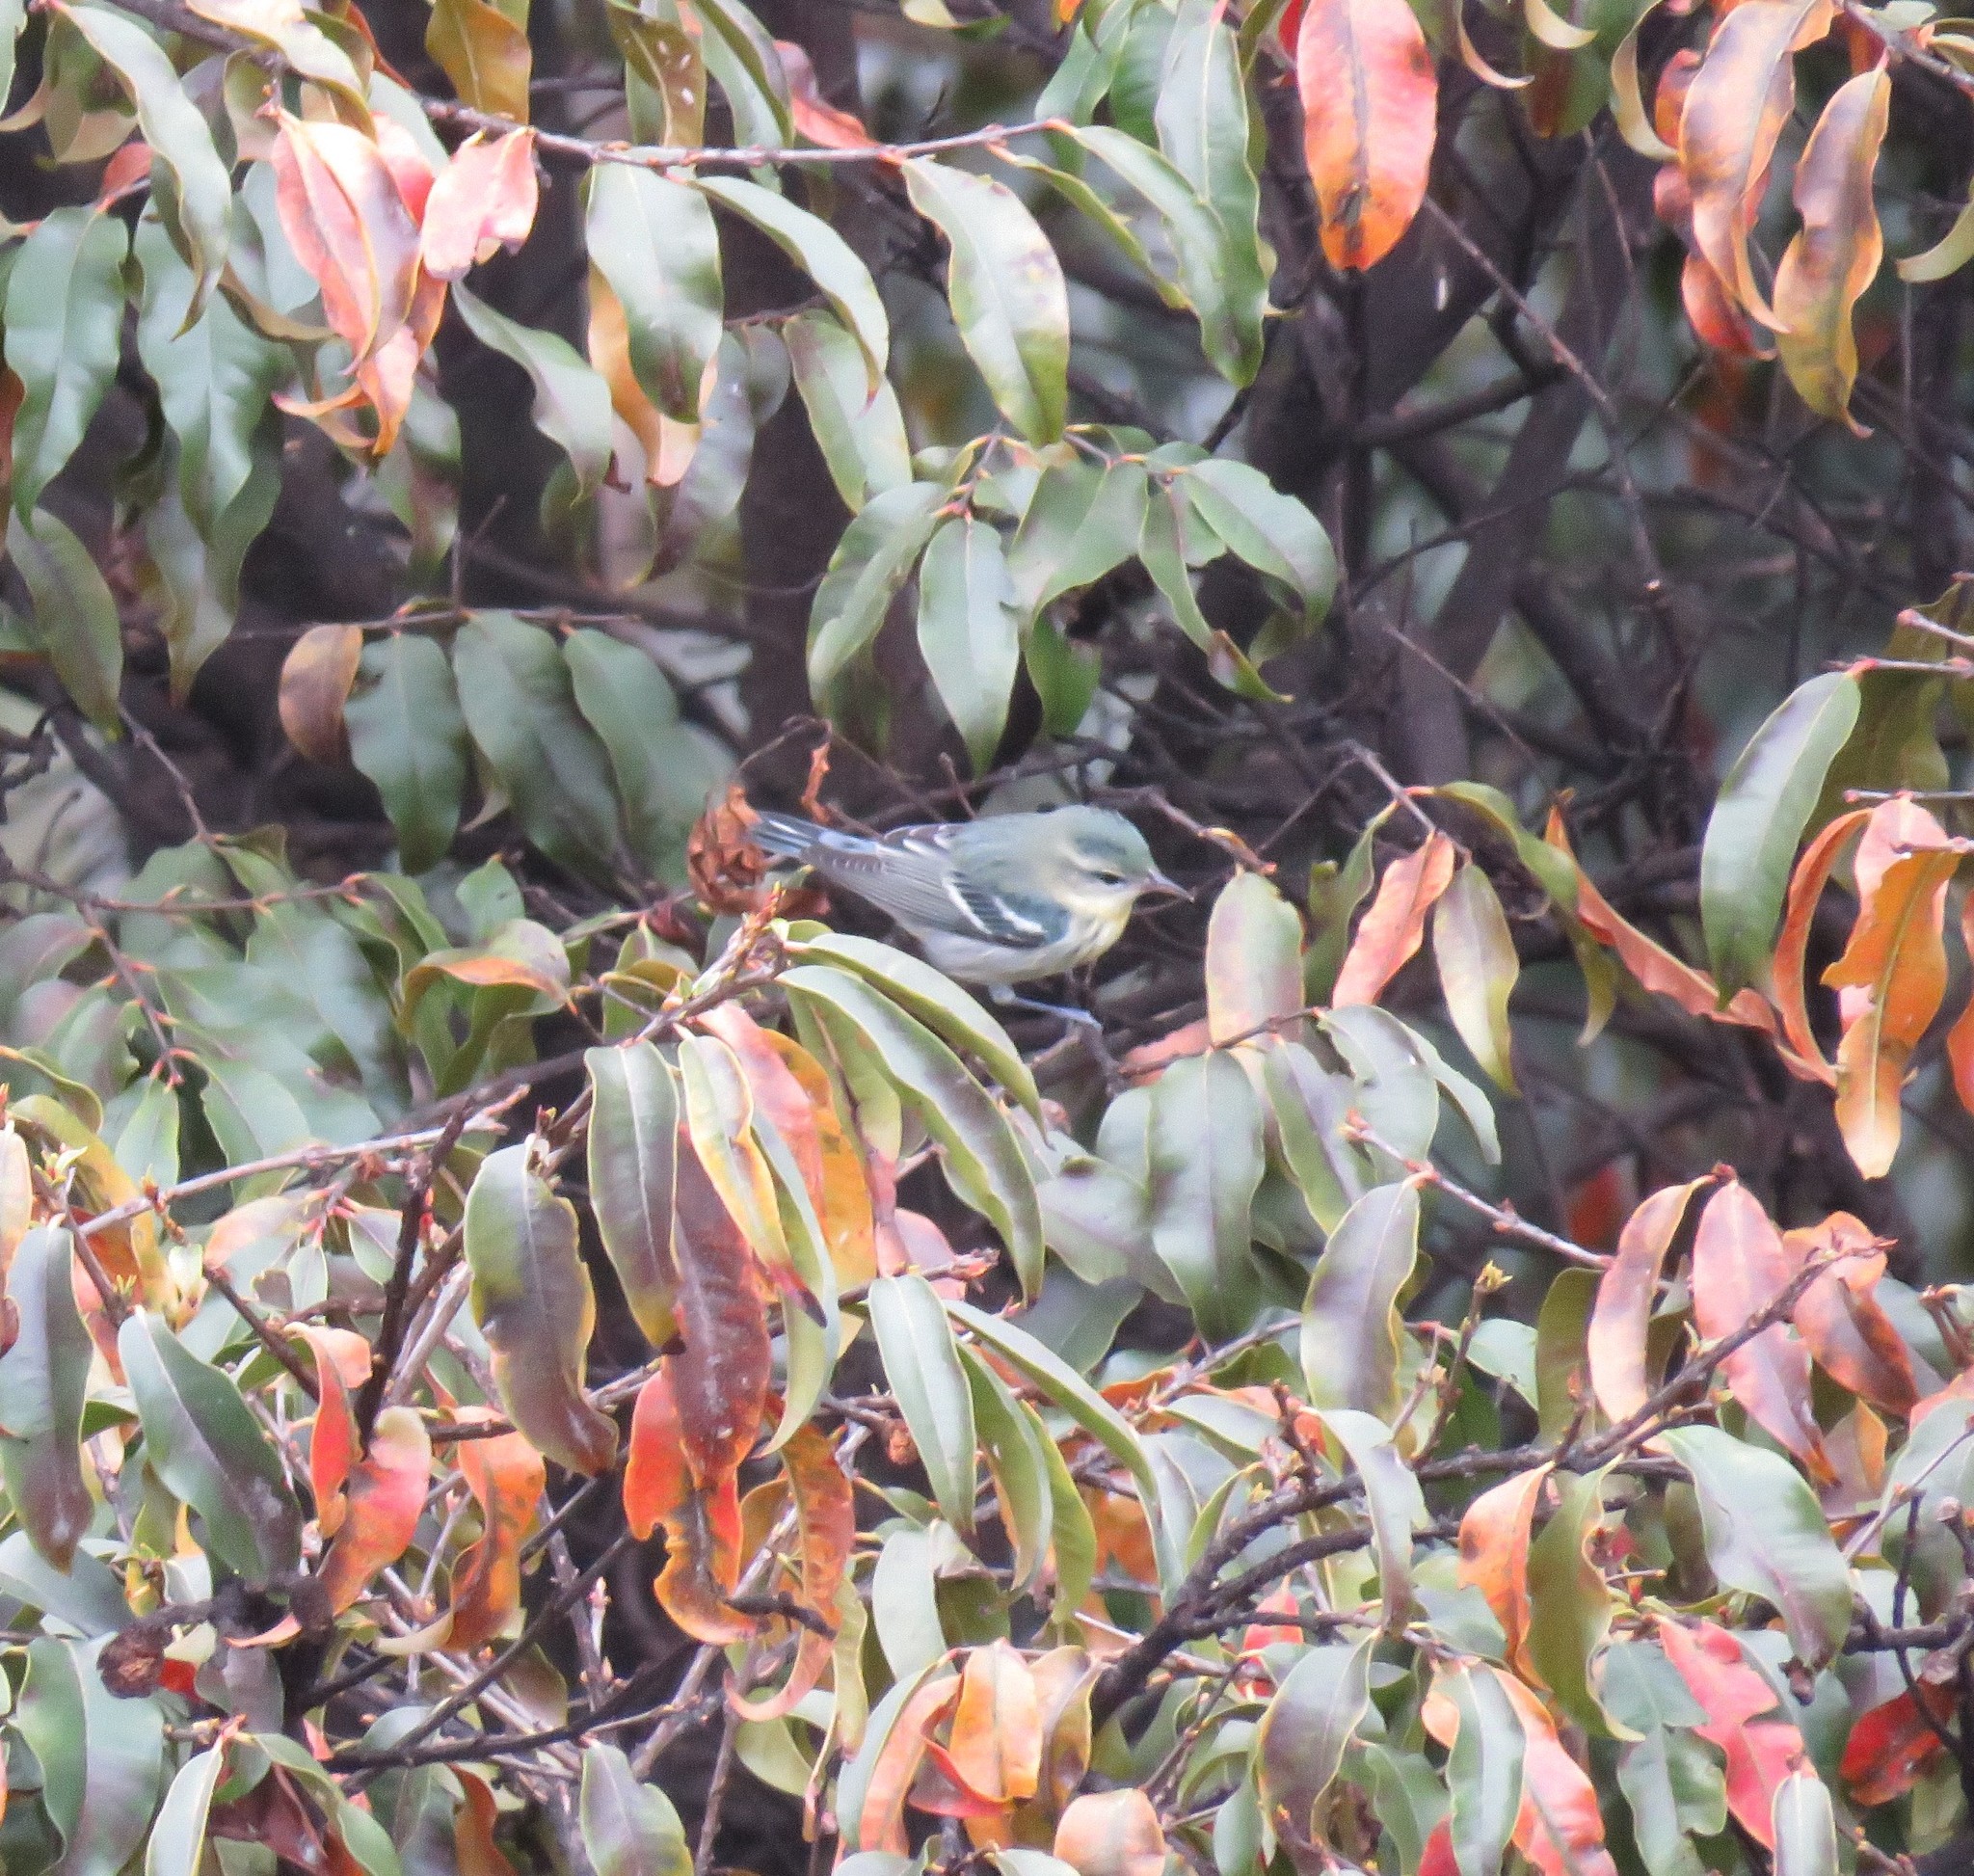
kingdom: Animalia
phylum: Chordata
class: Aves
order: Passeriformes
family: Parulidae
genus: Setophaga
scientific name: Setophaga cerulea
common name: Cerulean warbler
